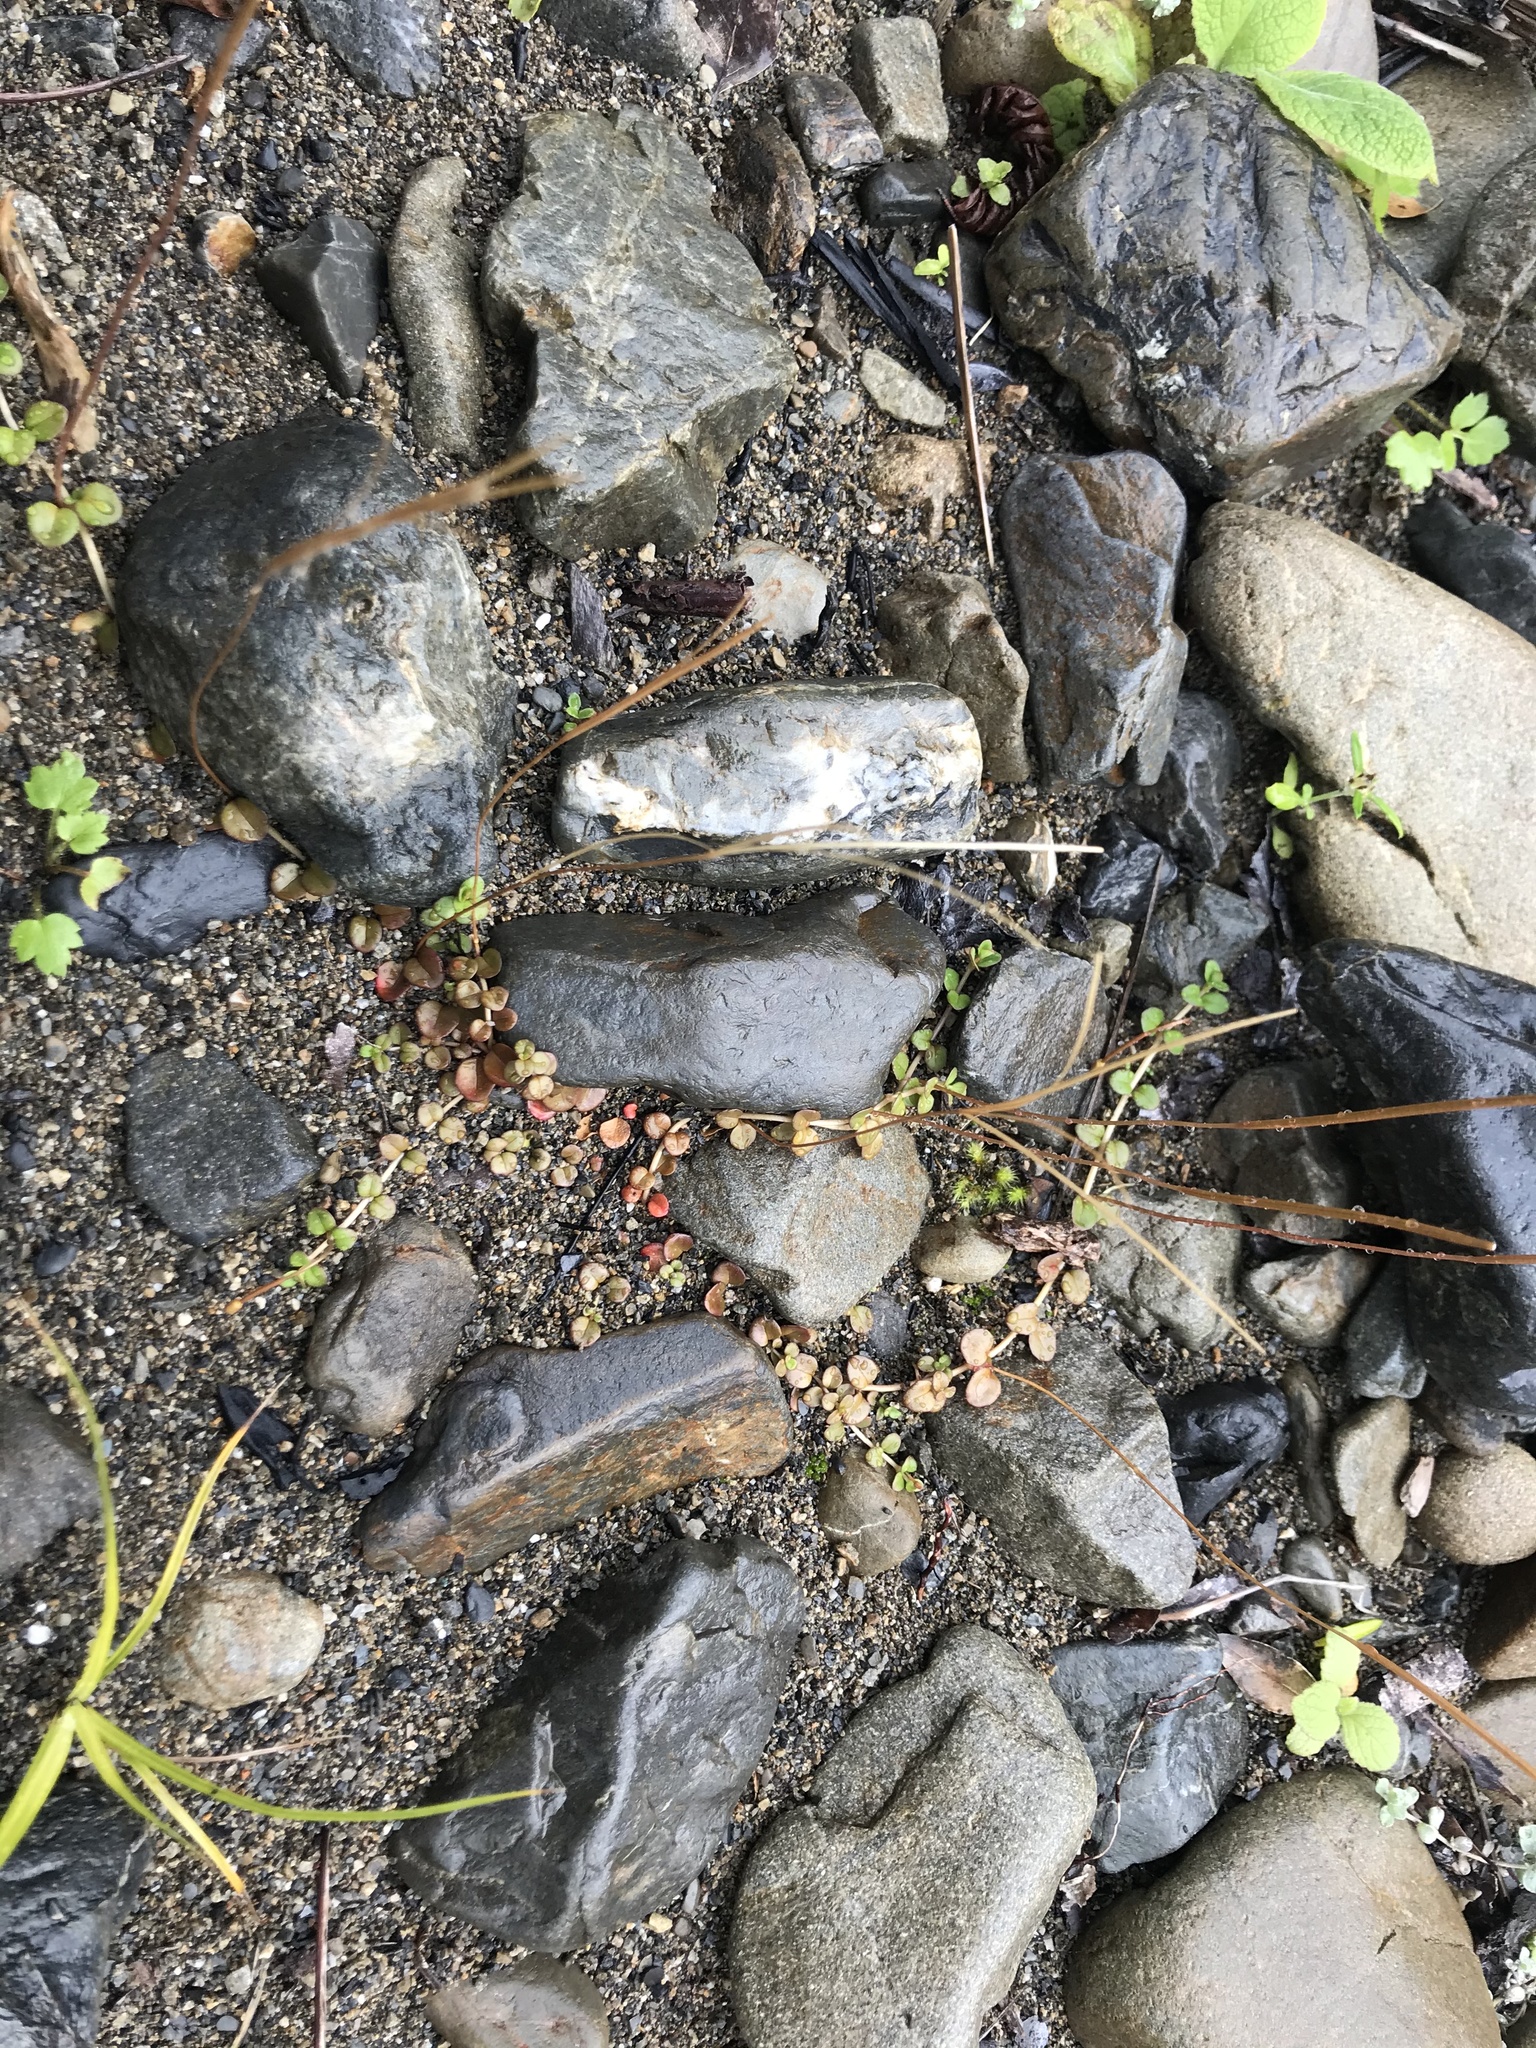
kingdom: Plantae
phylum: Tracheophyta
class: Magnoliopsida
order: Myrtales
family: Onagraceae
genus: Epilobium
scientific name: Epilobium brunnescens
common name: New zealand willowherb
